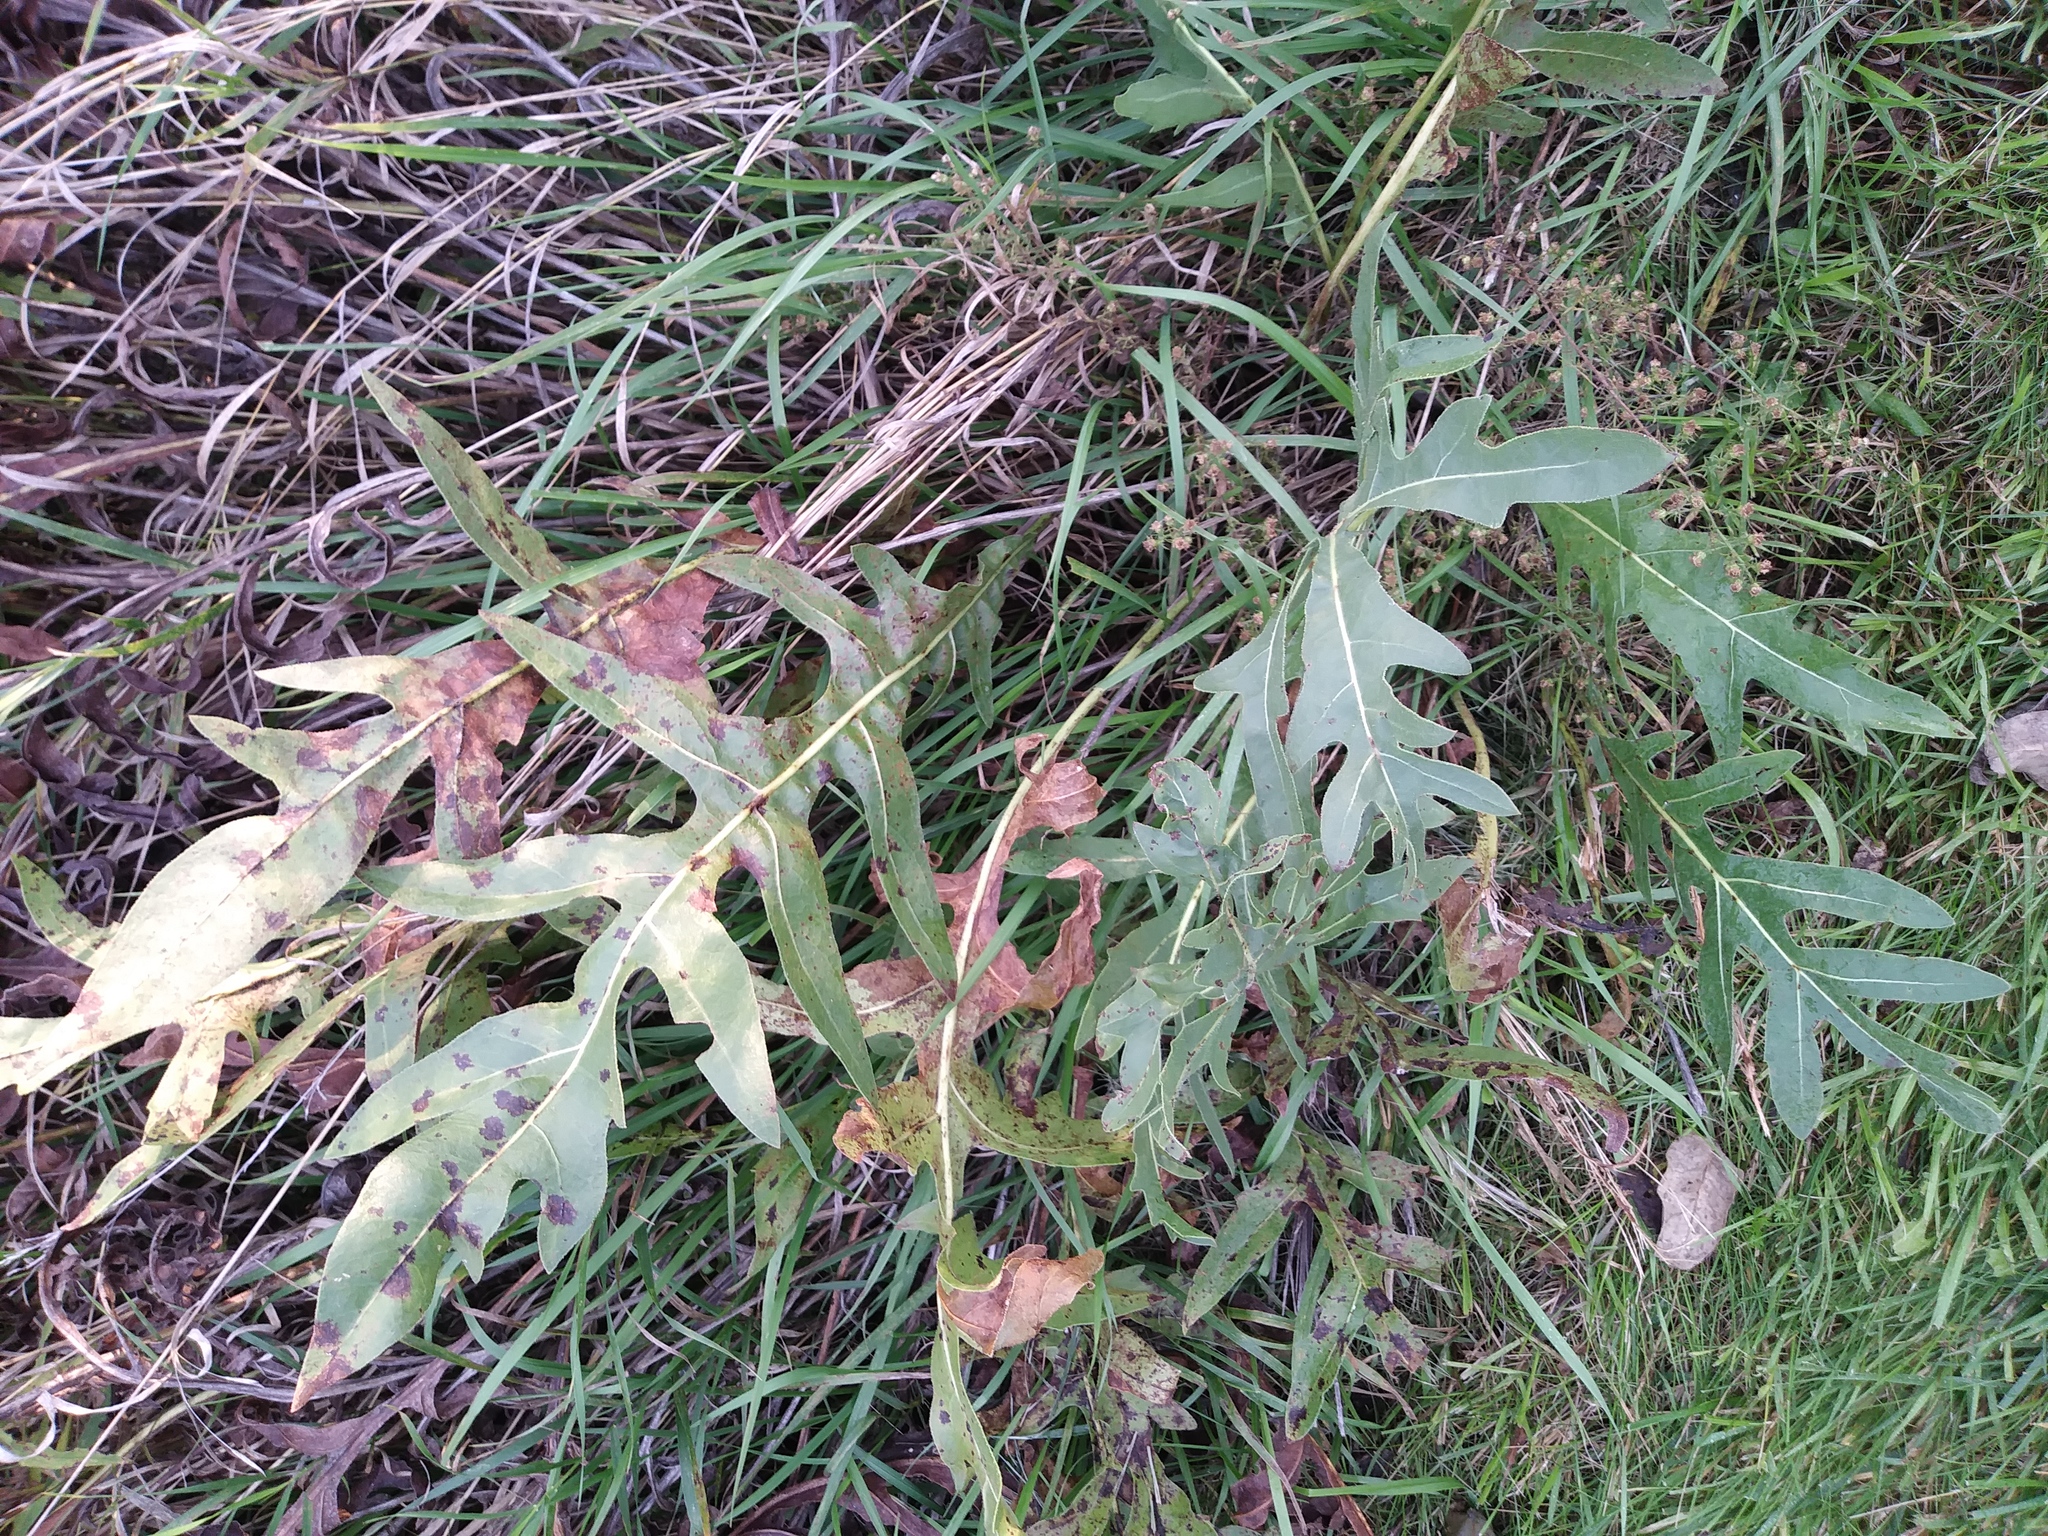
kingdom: Plantae
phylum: Tracheophyta
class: Magnoliopsida
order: Asterales
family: Asteraceae
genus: Silphium
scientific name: Silphium laciniatum
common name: Polarplant
